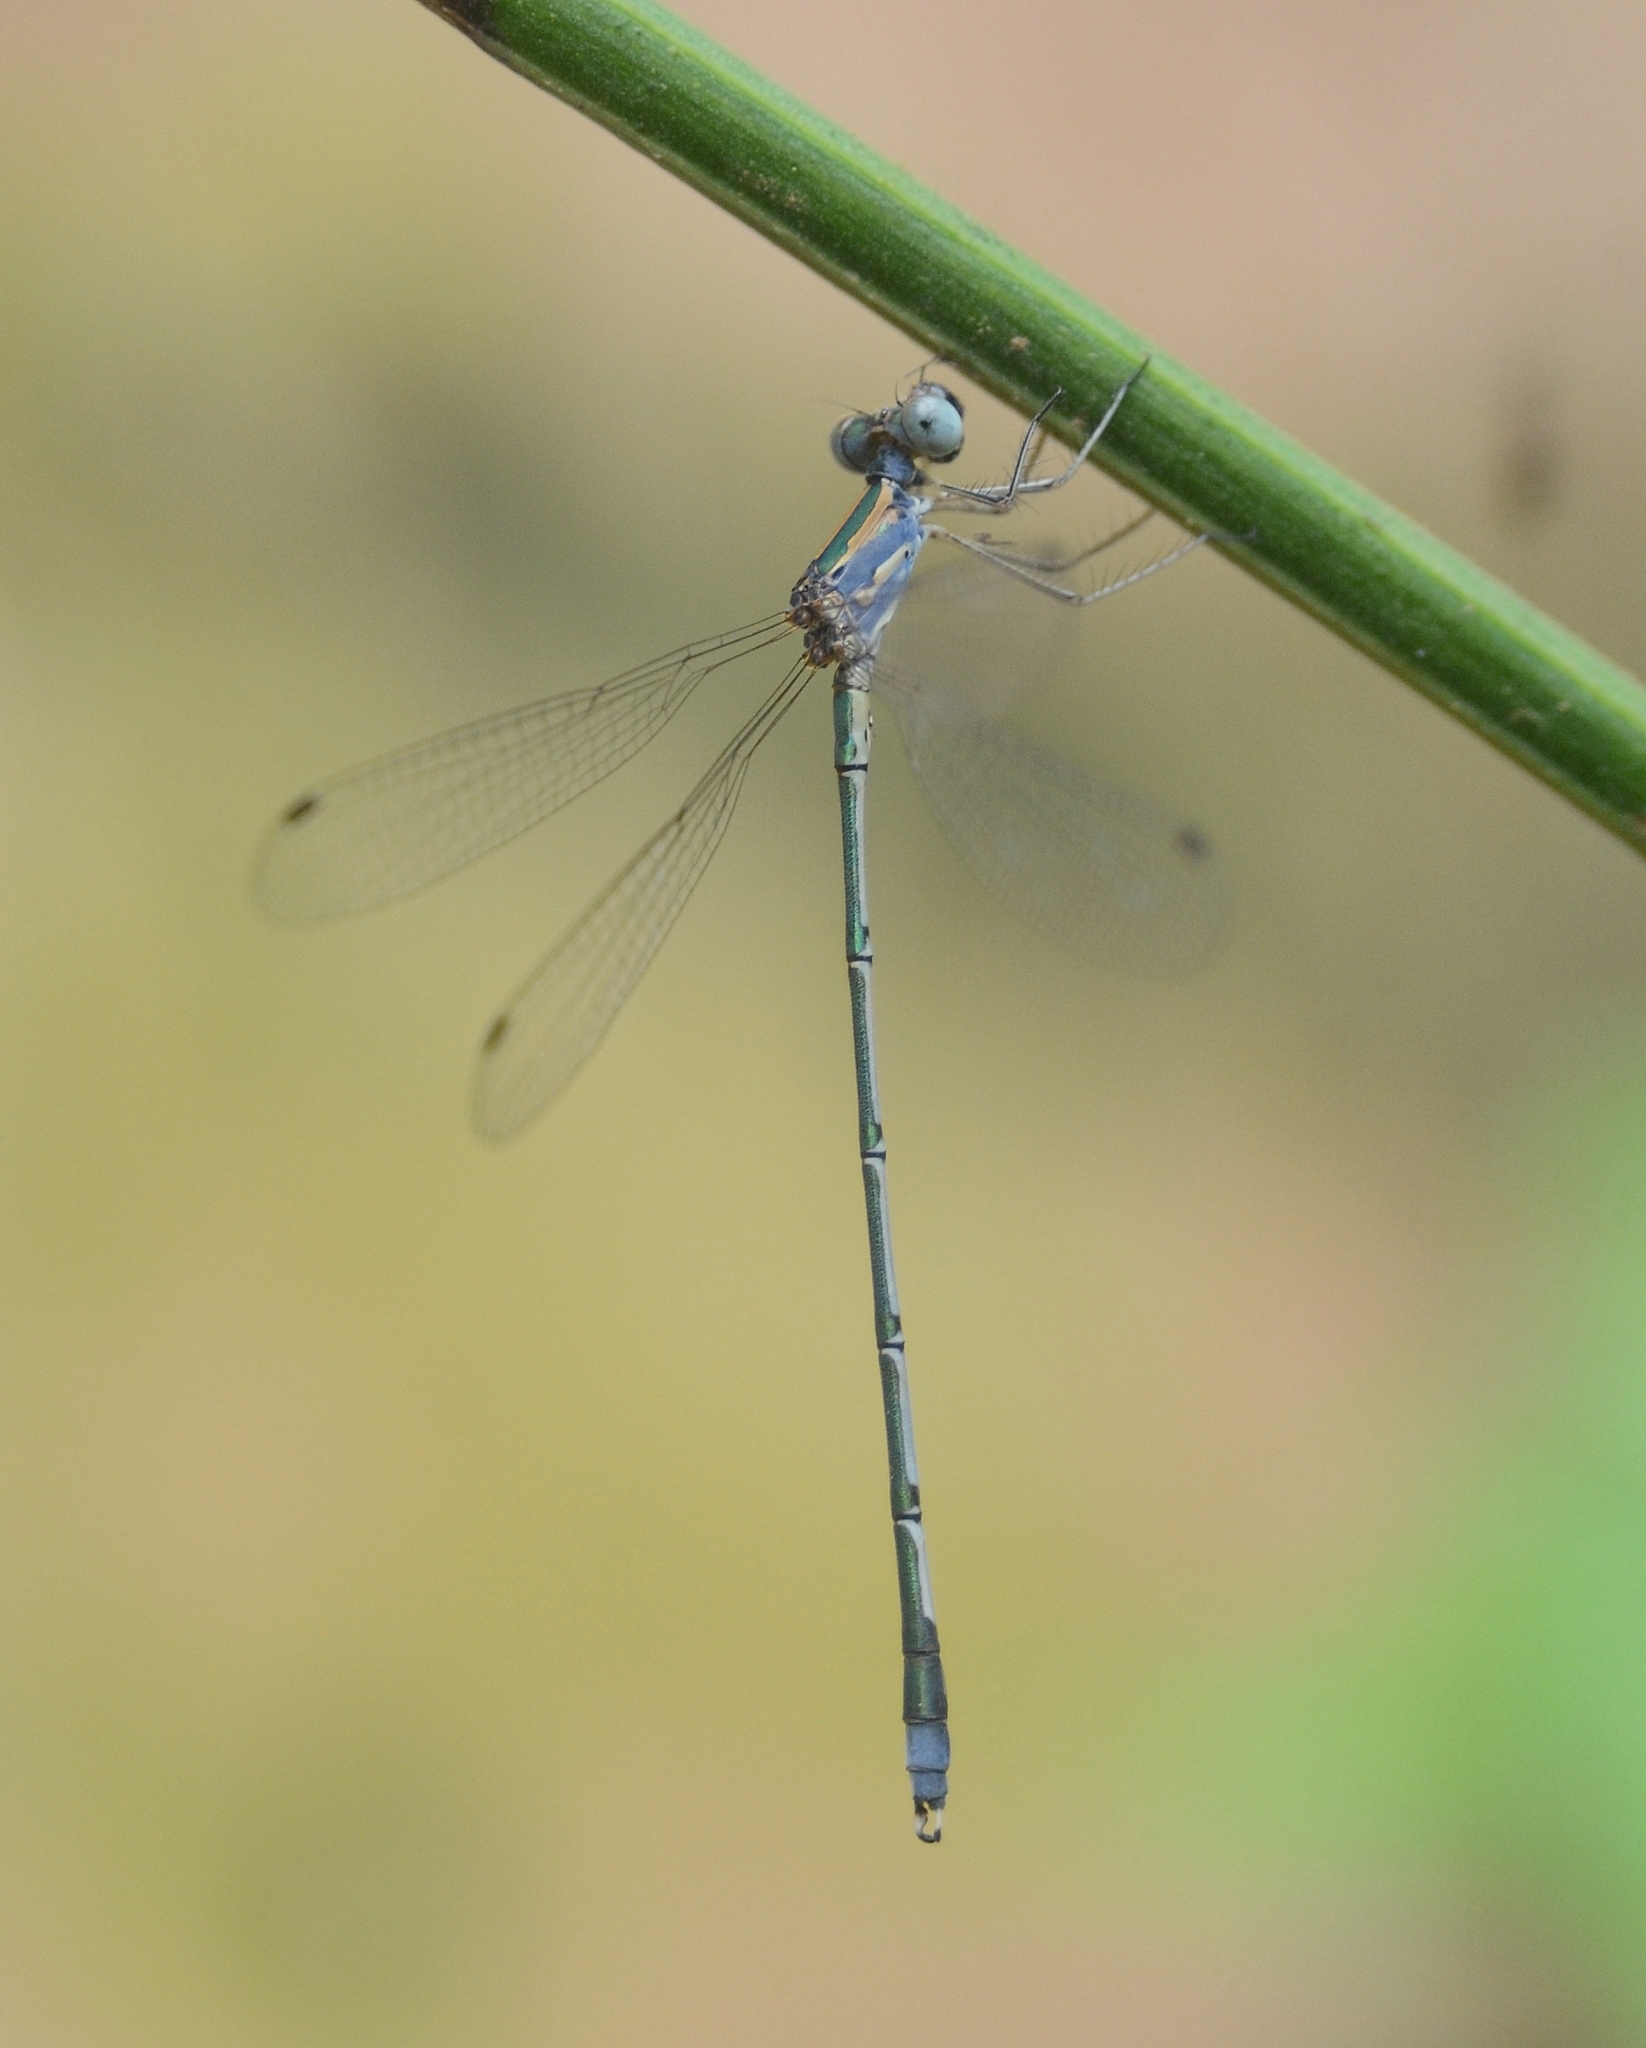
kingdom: Animalia
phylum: Arthropoda
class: Insecta
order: Odonata
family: Lestidae
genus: Lestes
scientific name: Lestes elatus
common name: Emerald spreadwing
